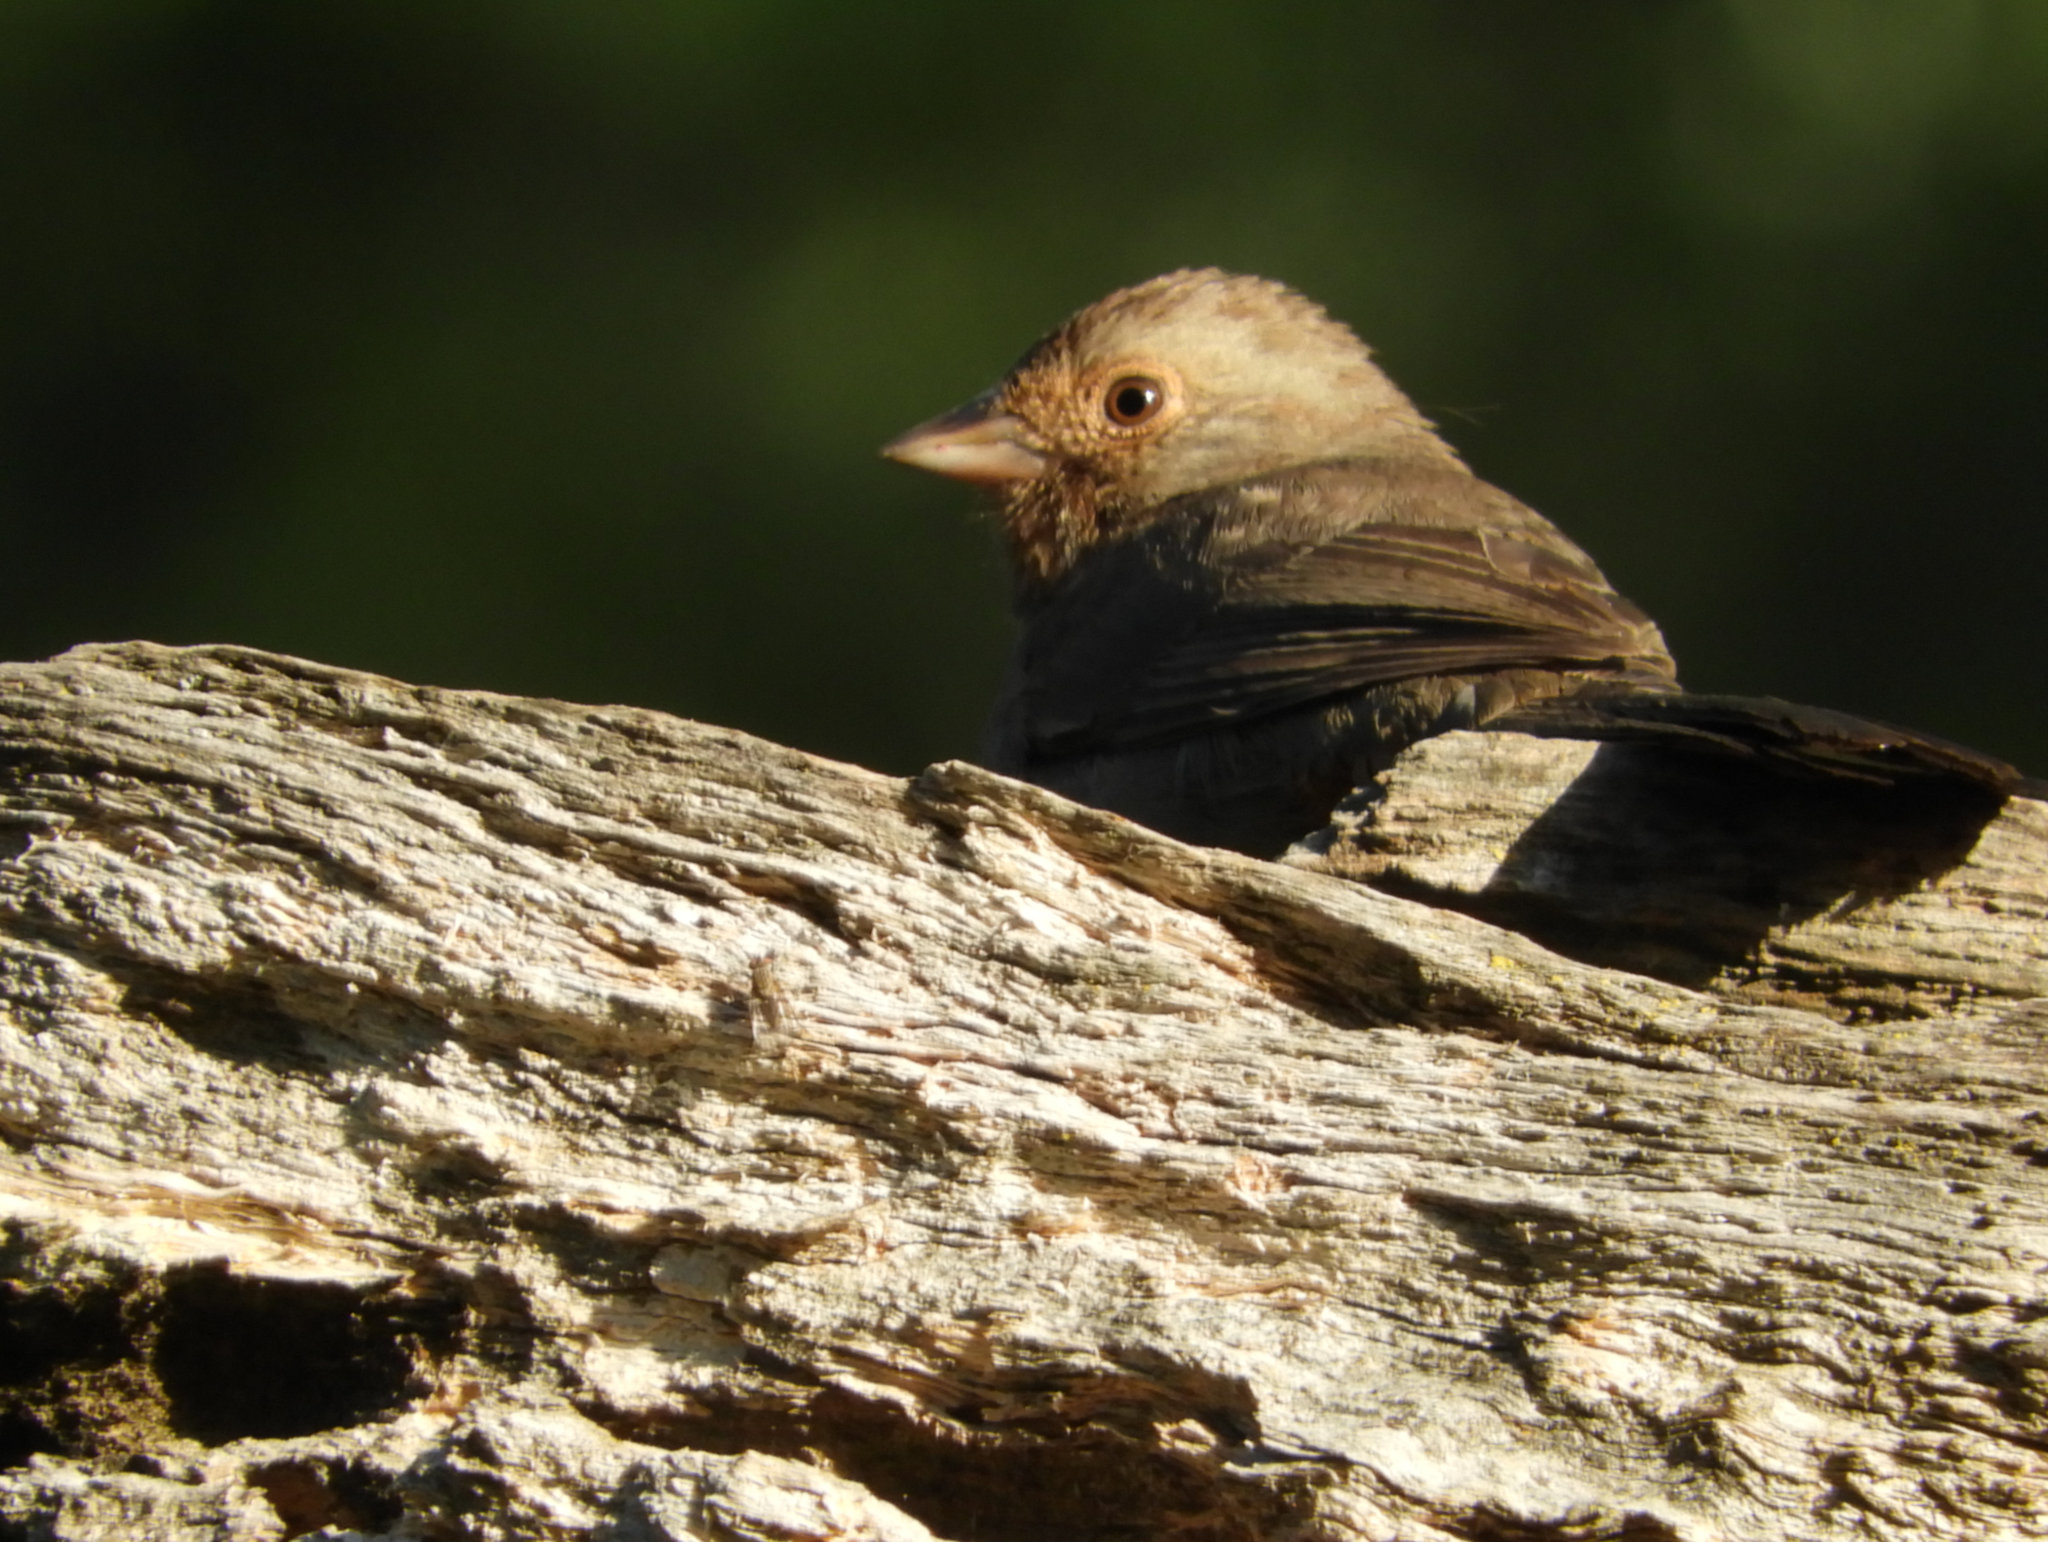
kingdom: Animalia
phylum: Chordata
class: Aves
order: Passeriformes
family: Passerellidae
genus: Melozone
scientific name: Melozone crissalis
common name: California towhee
